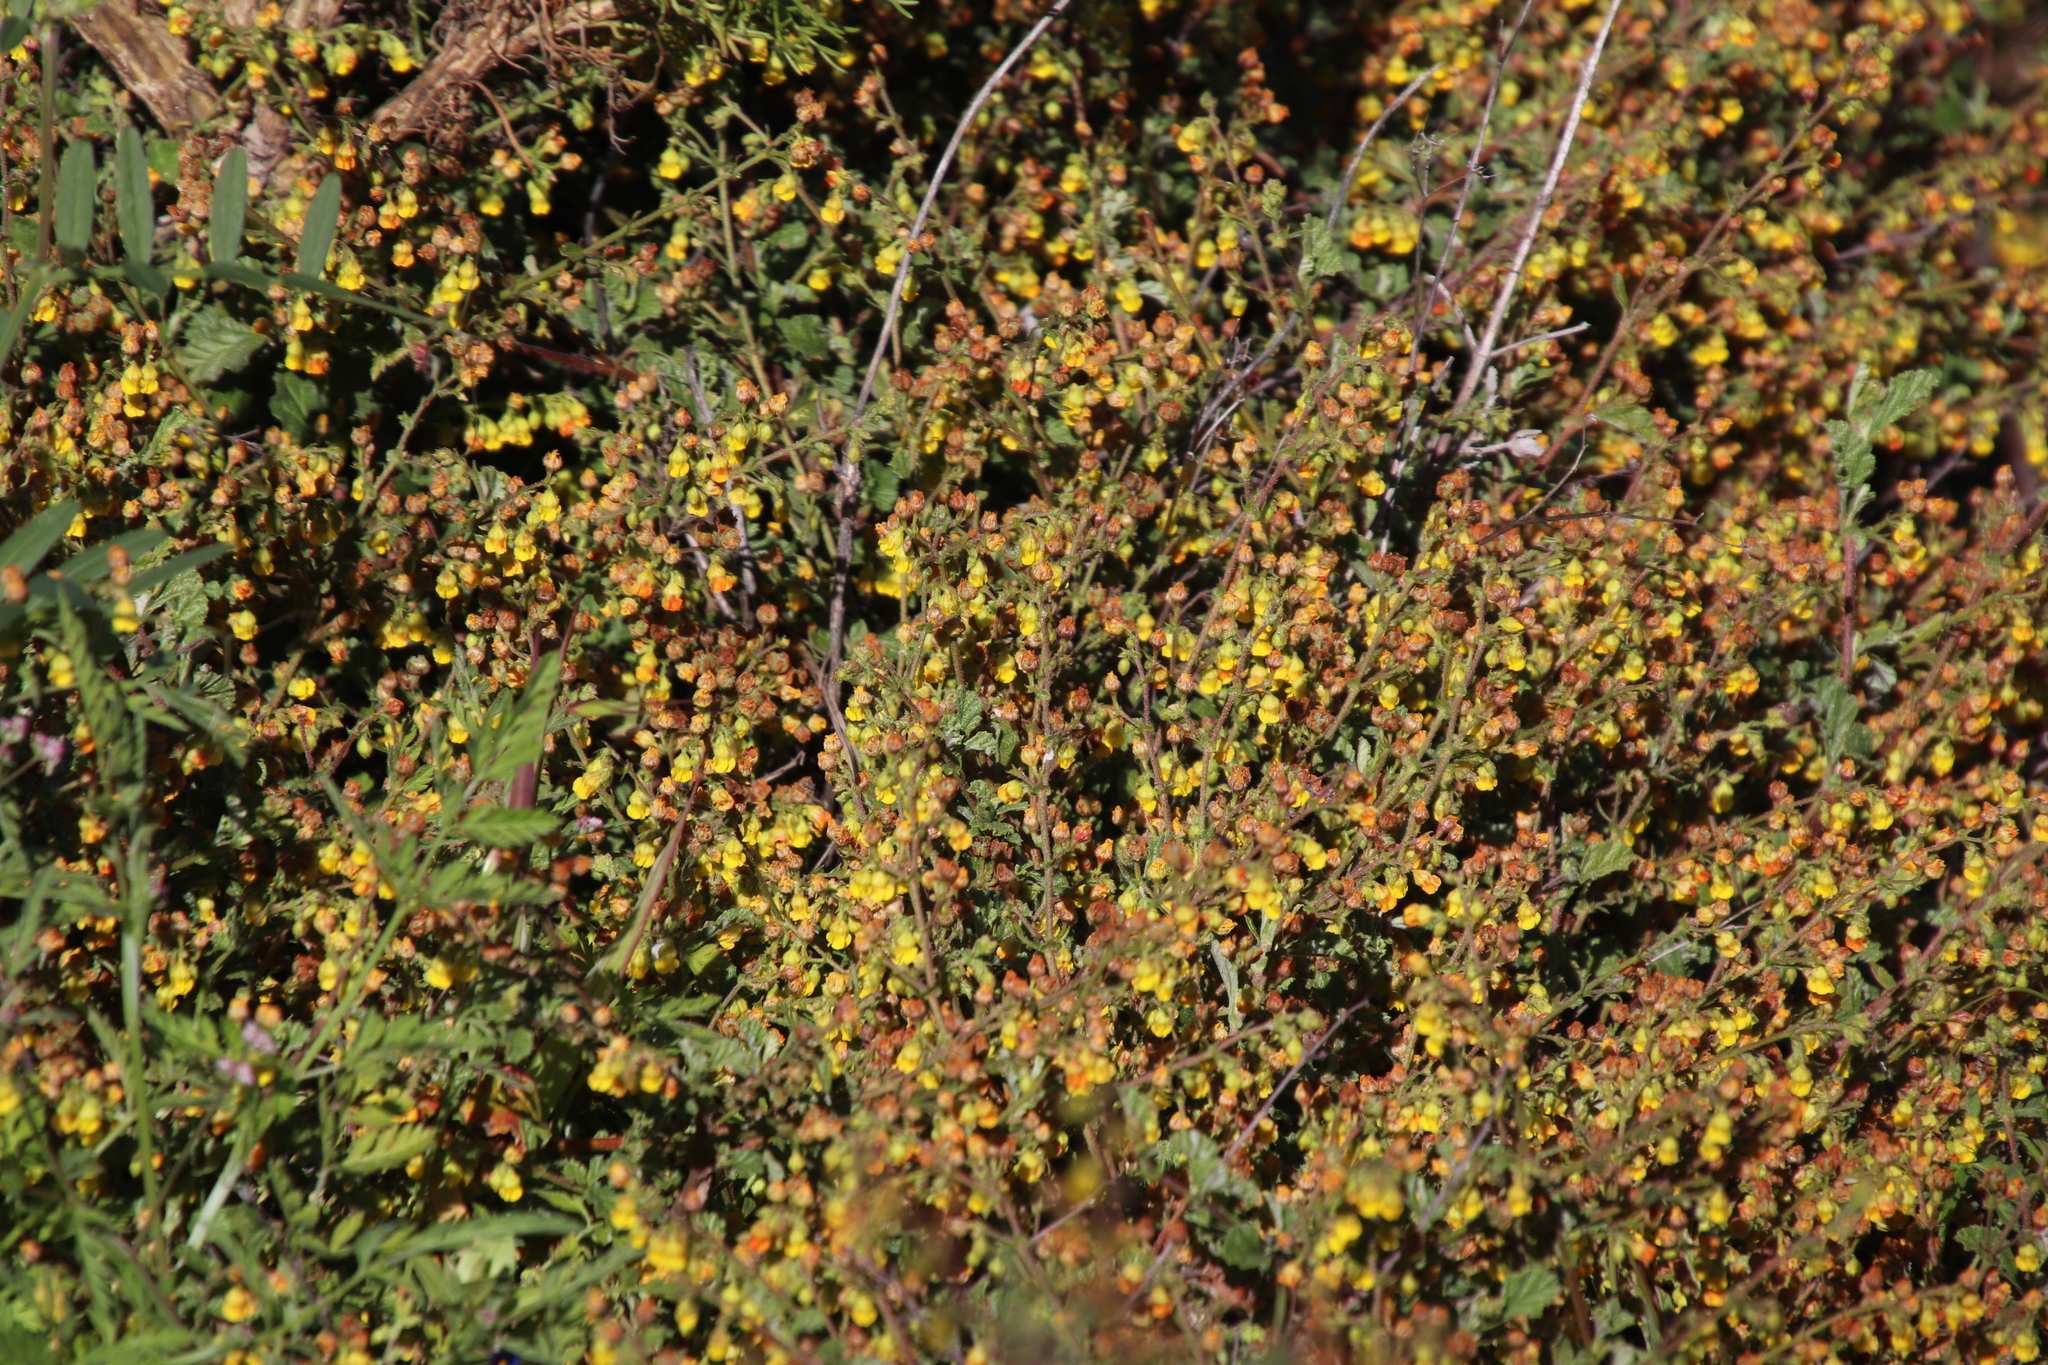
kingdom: Plantae
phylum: Tracheophyta
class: Magnoliopsida
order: Malvales
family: Malvaceae
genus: Hermannia
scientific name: Hermannia alnifolia
